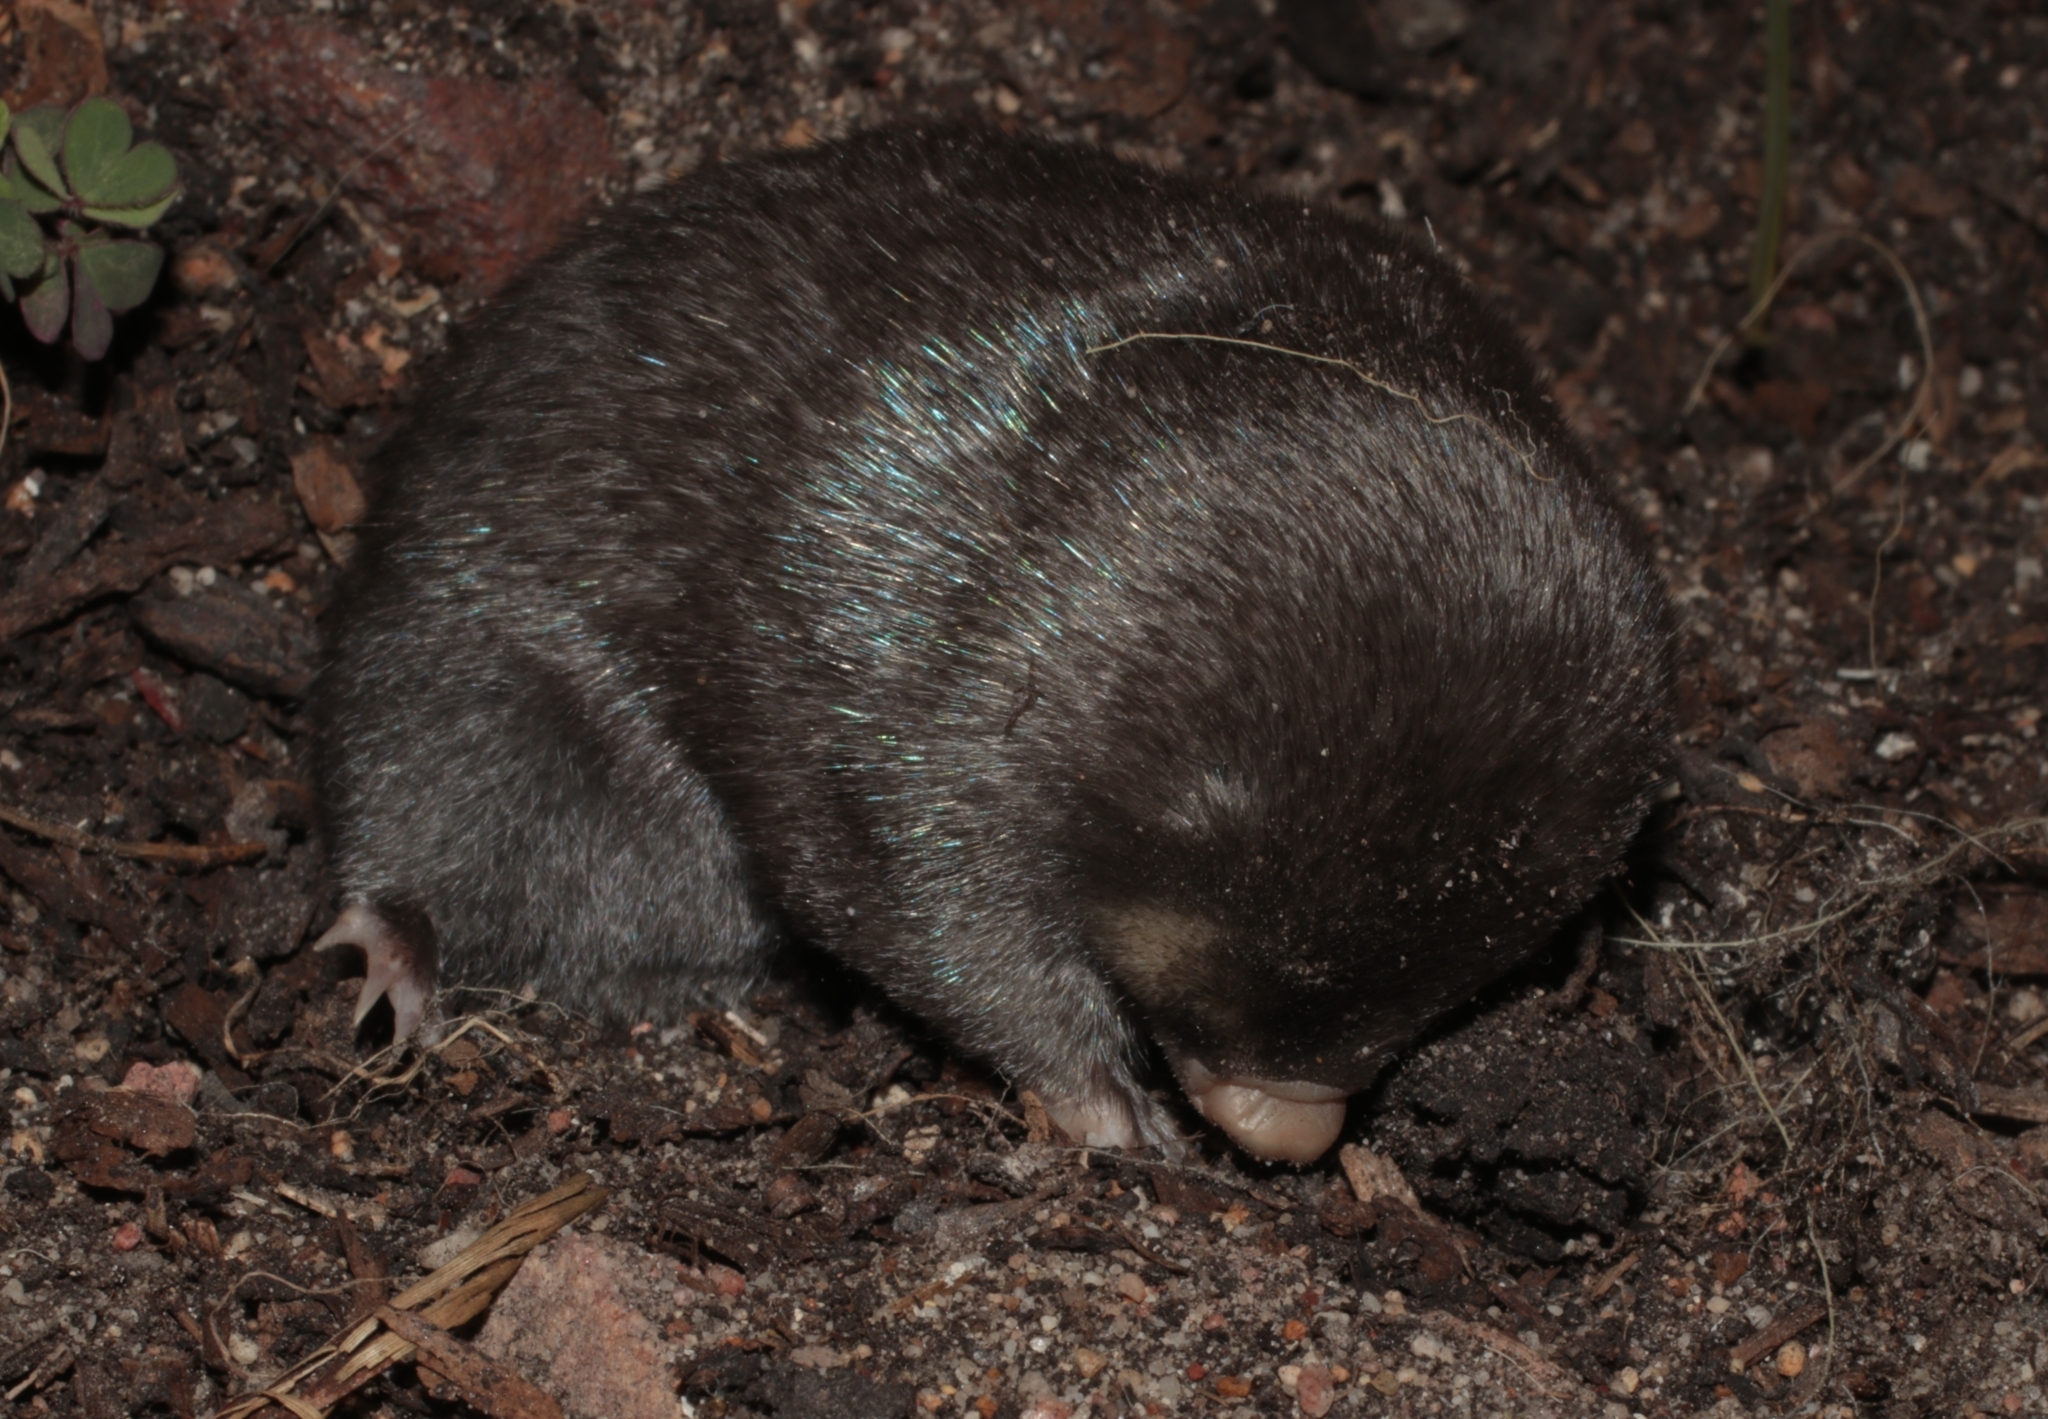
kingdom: Animalia
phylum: Chordata
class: Mammalia
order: Afrosoricida
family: Chrysochloridae
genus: Chrysochloris
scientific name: Chrysochloris asiatica
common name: Cape golden mole
